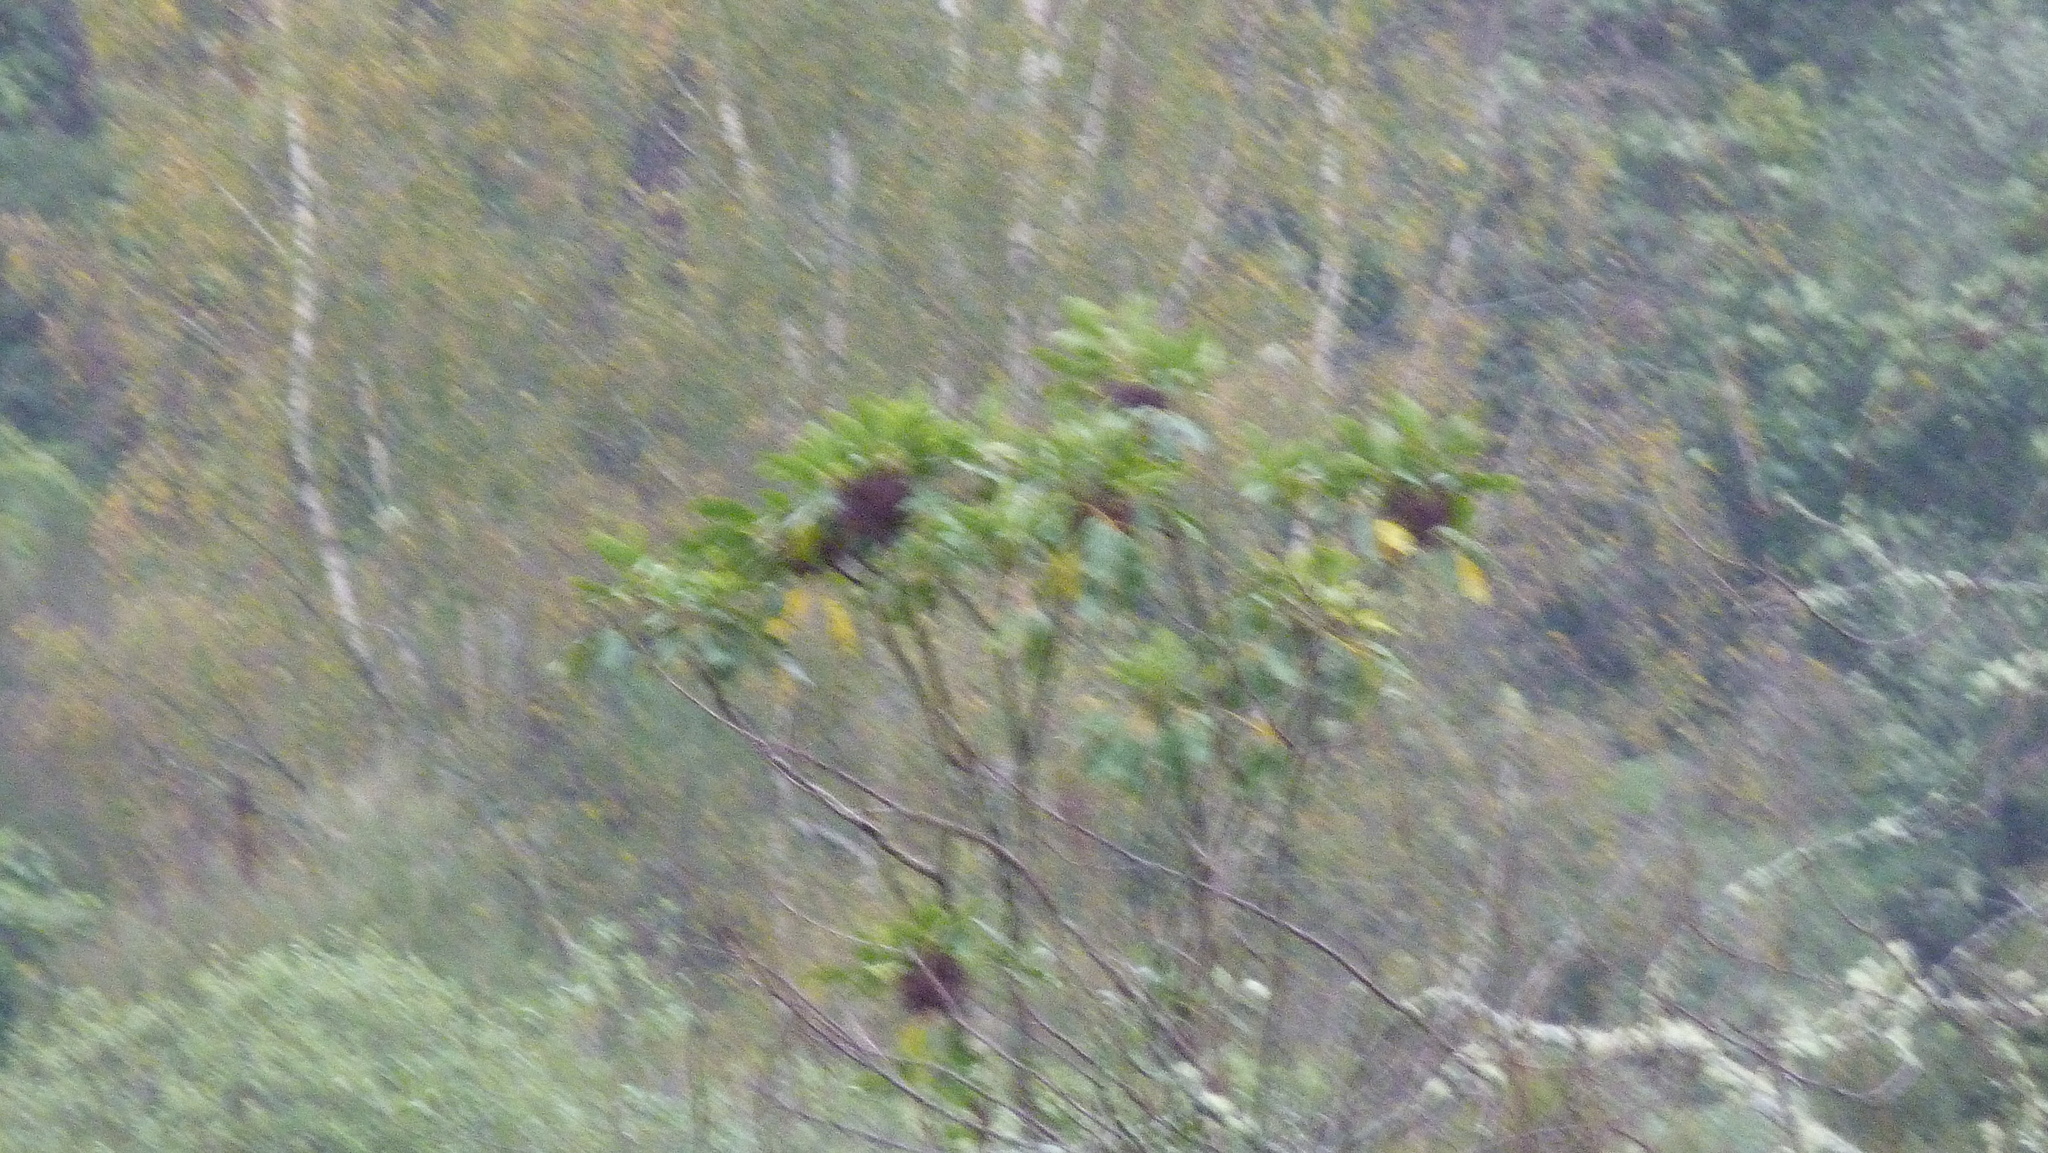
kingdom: Plantae
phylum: Tracheophyta
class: Magnoliopsida
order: Apiales
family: Araliaceae
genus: Neopanax
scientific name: Neopanax arboreus
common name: Five-fingers
